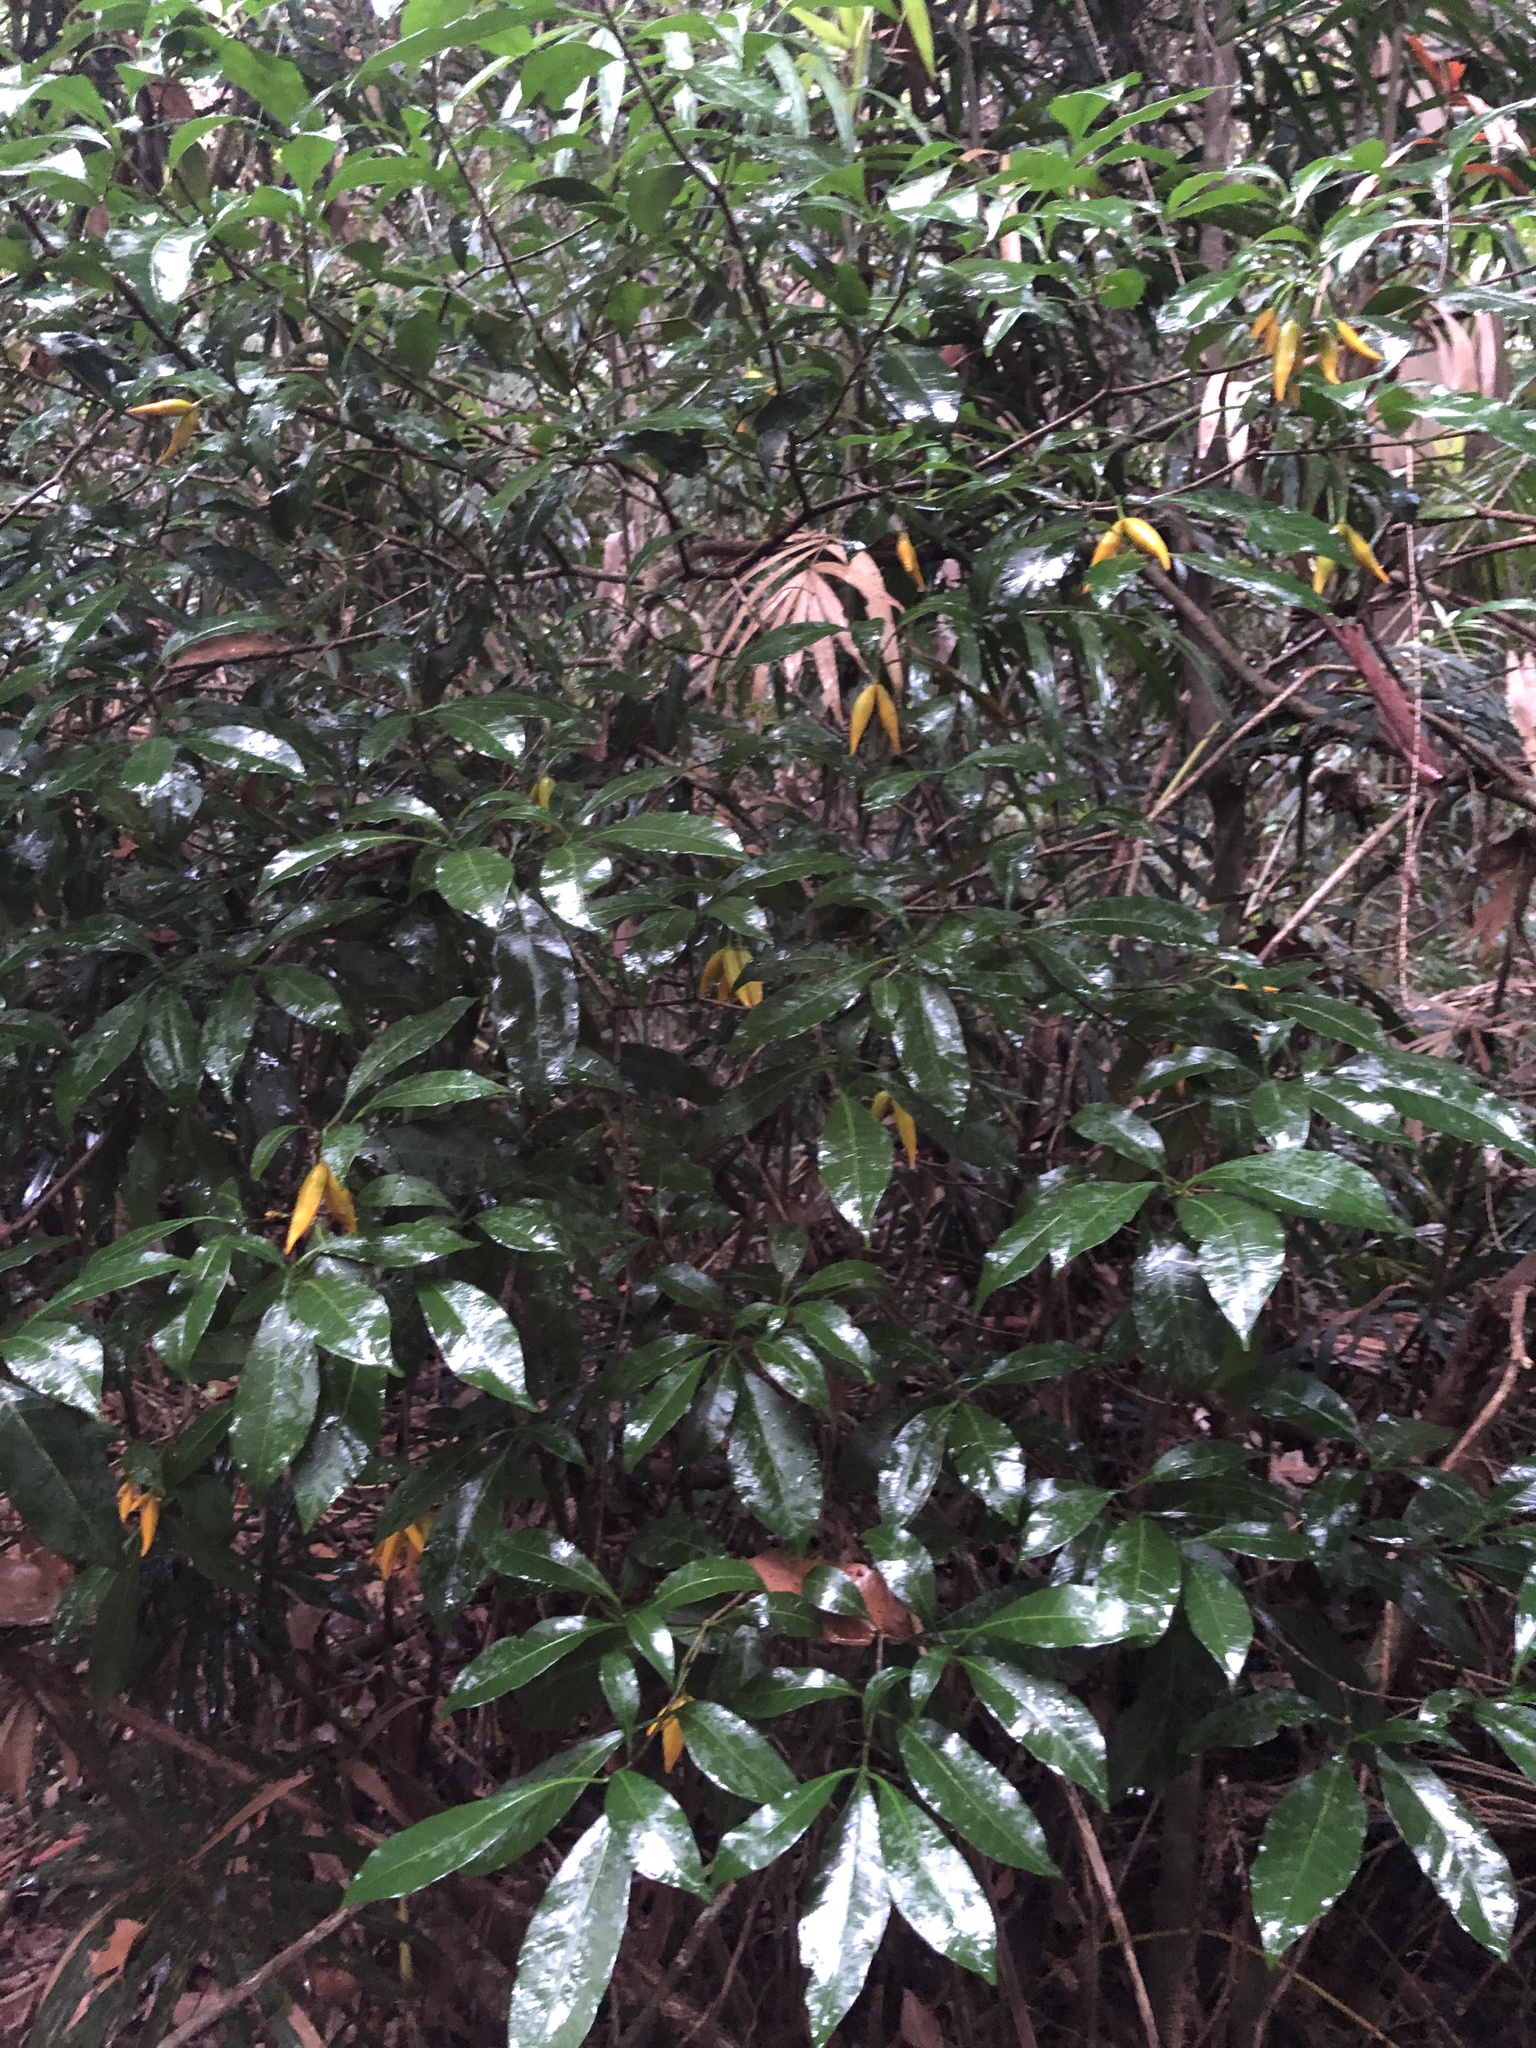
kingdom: Plantae
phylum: Tracheophyta
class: Magnoliopsida
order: Gentianales
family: Apocynaceae
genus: Tabernaemontana
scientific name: Tabernaemontana pandacaqui
